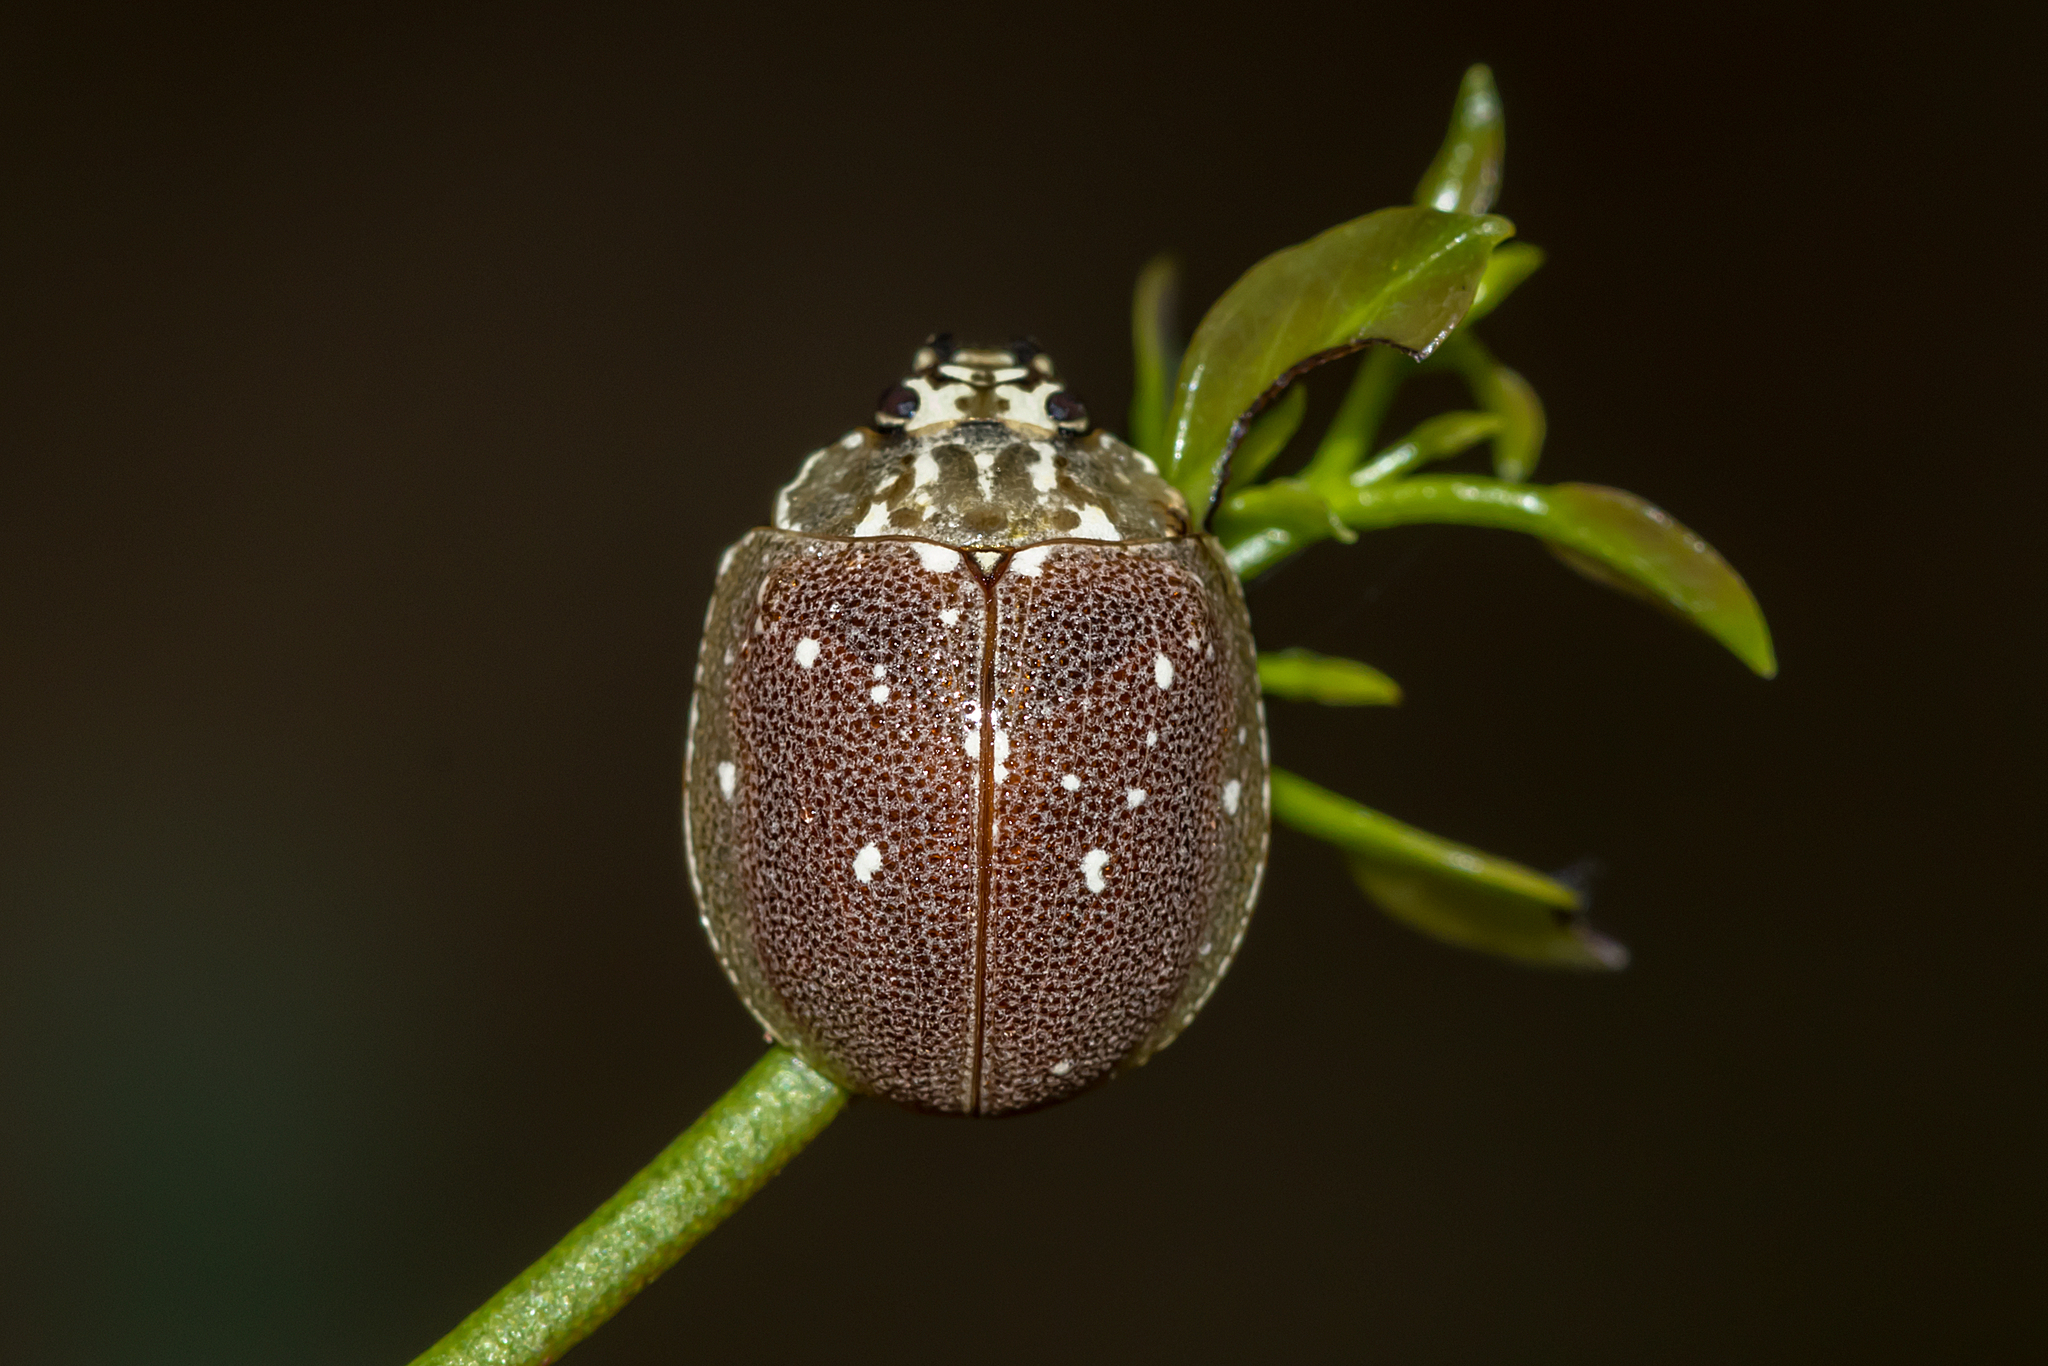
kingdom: Animalia
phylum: Arthropoda
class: Insecta
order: Coleoptera
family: Chrysomelidae
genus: Paropsis
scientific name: Paropsis aegrota
